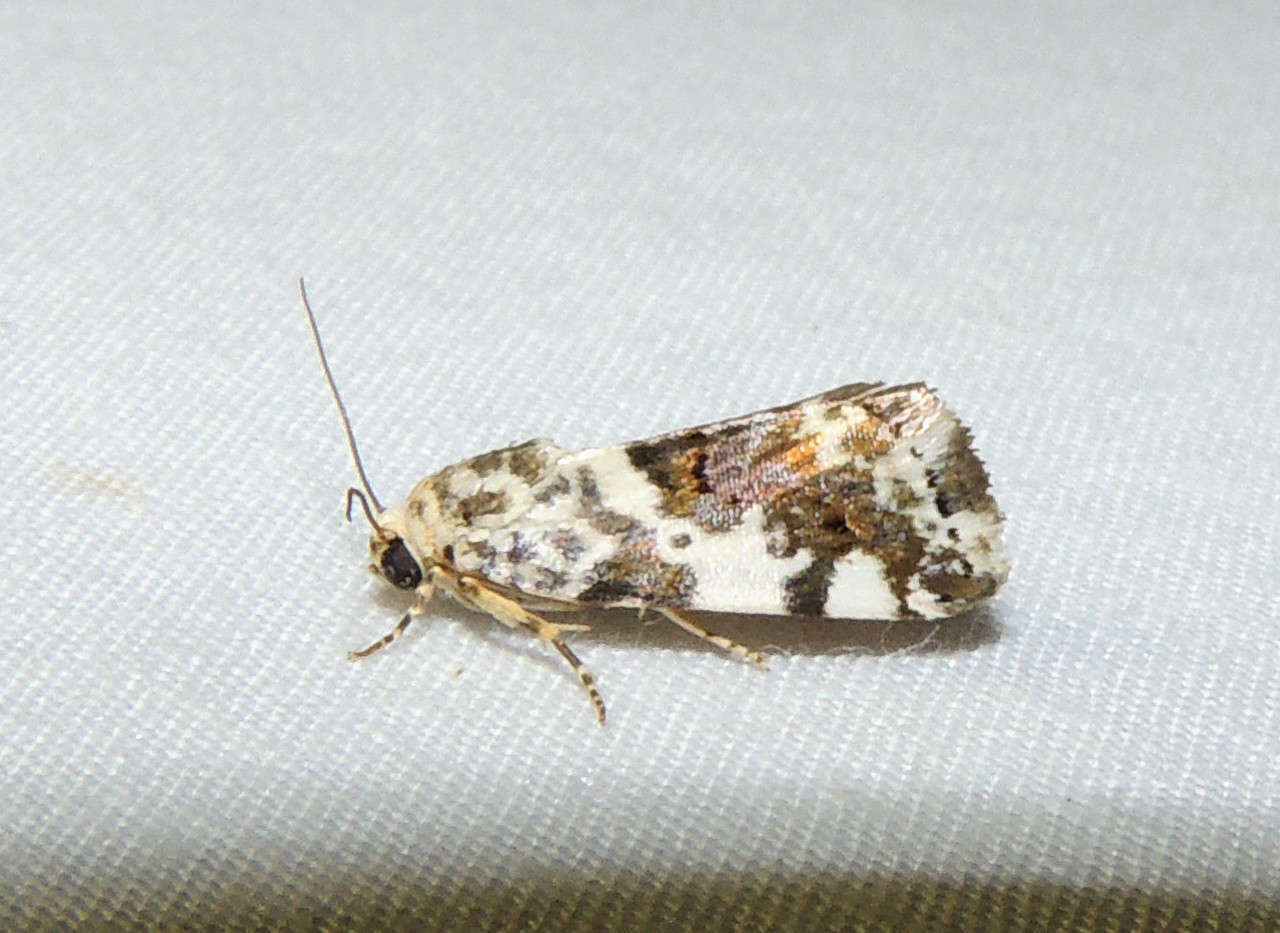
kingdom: Animalia
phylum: Arthropoda
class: Insecta
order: Lepidoptera
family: Noctuidae
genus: Acontia
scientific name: Acontia clerana
